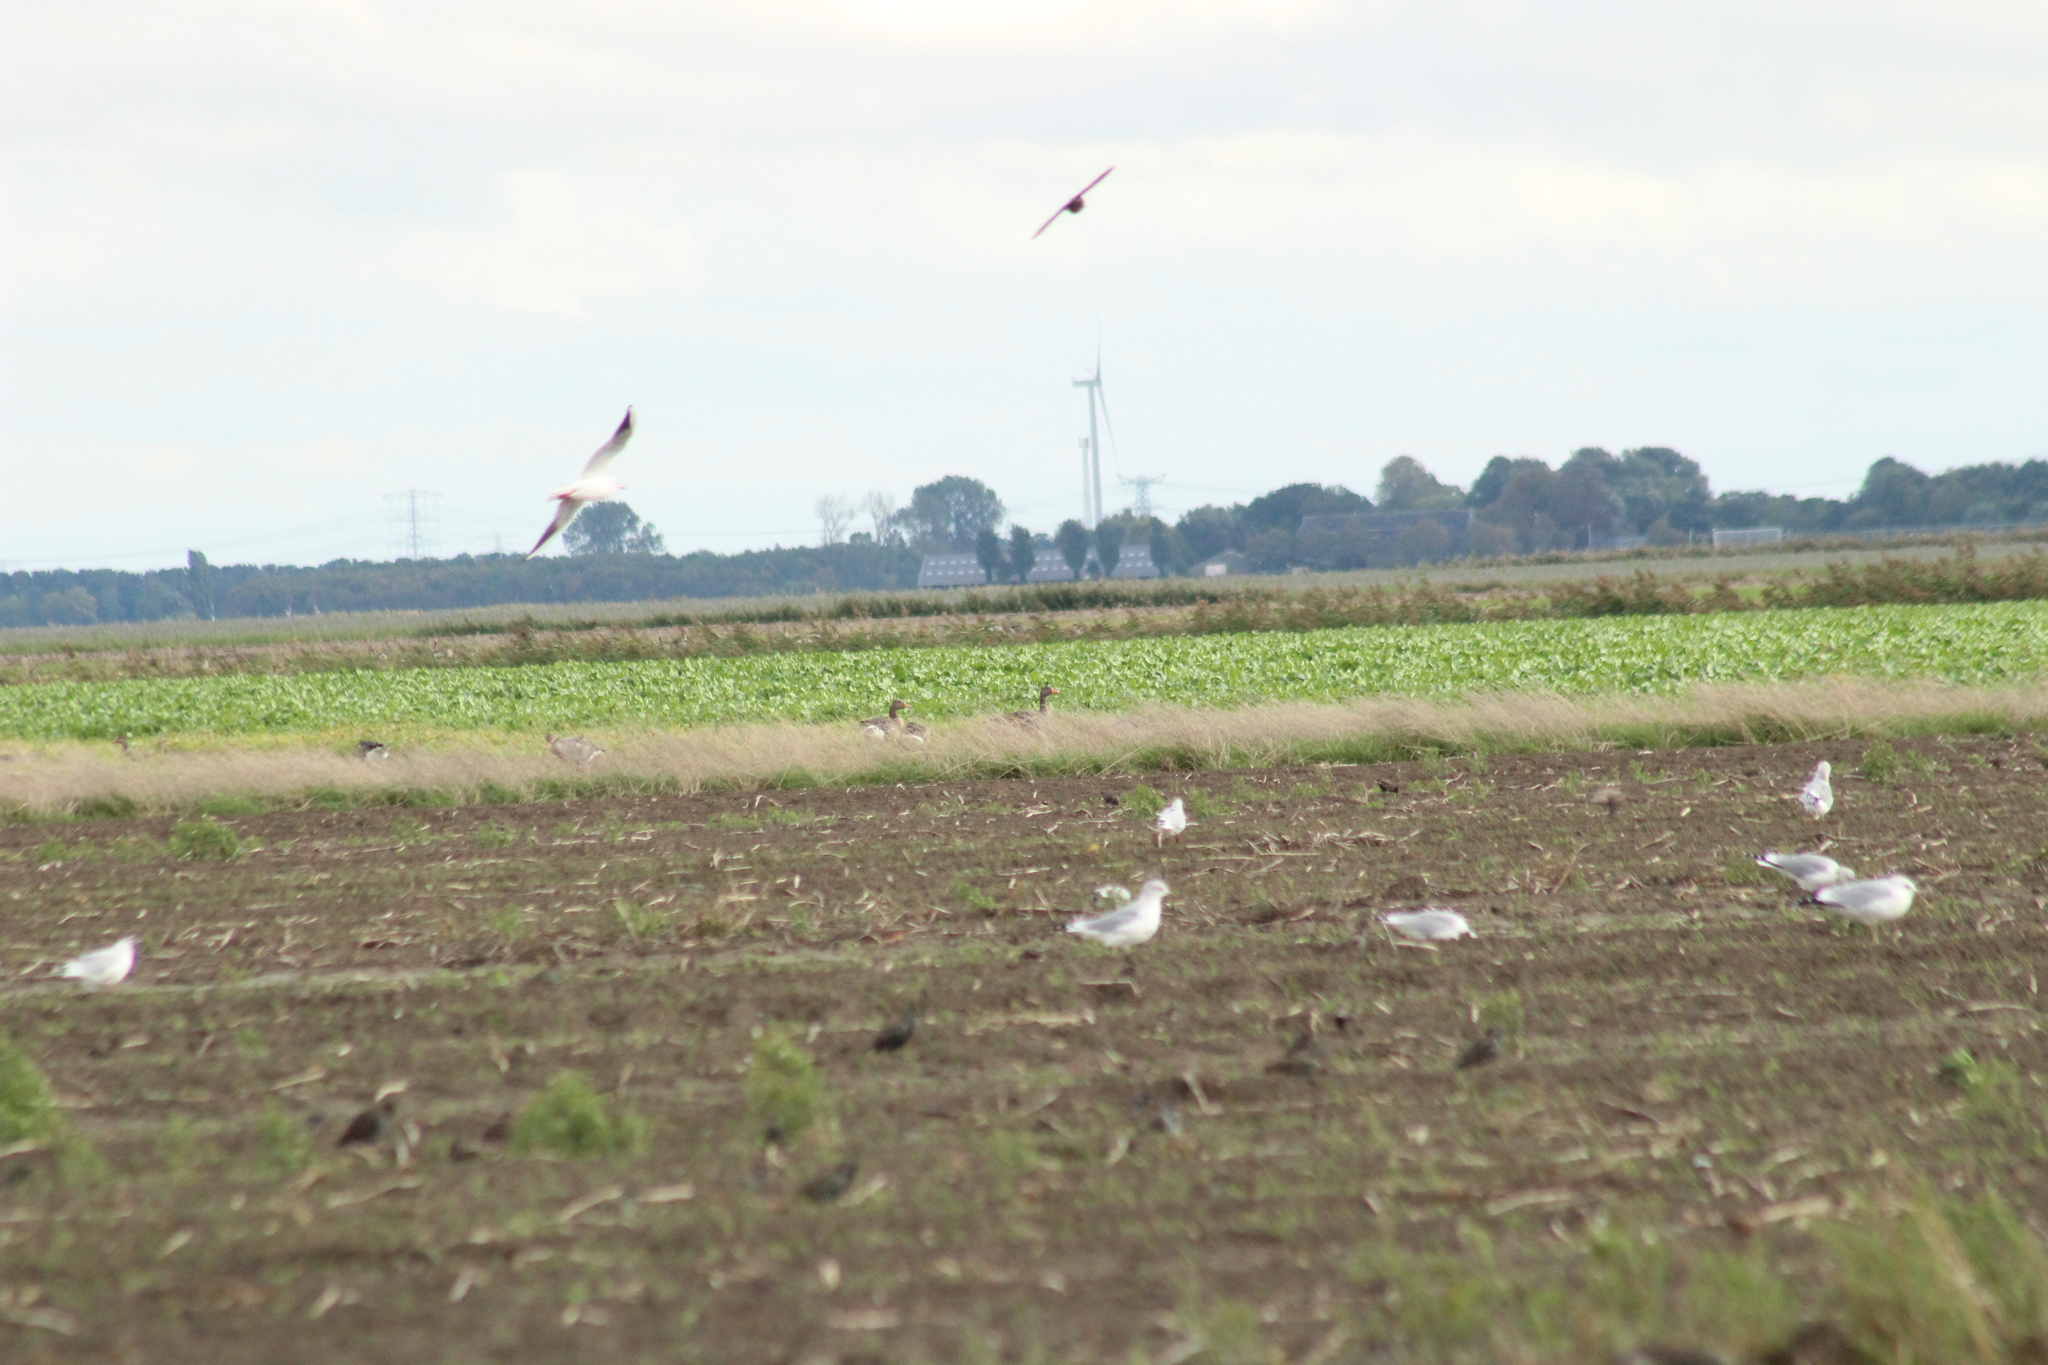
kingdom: Animalia
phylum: Chordata
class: Aves
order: Anseriformes
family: Anatidae
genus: Anser
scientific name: Anser anser
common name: Greylag goose
